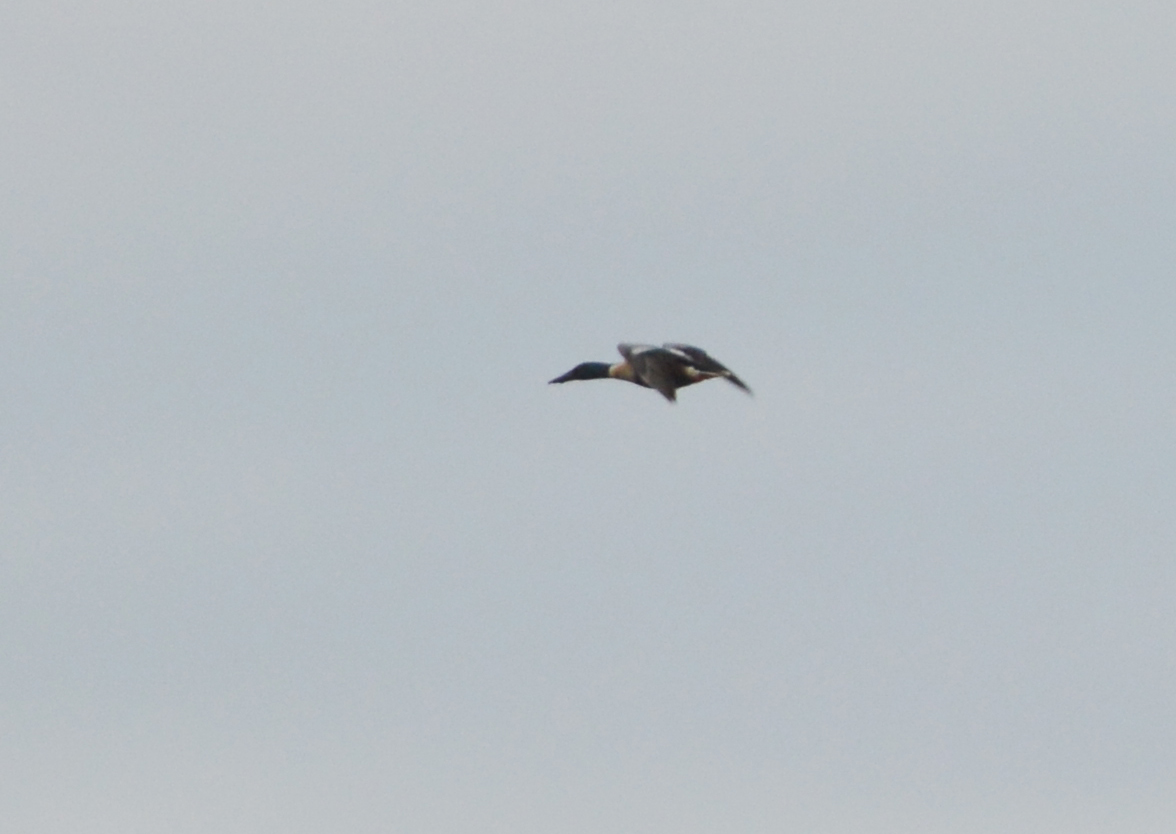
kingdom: Animalia
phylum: Chordata
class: Aves
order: Anseriformes
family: Anatidae
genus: Spatula
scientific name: Spatula clypeata
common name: Northern shoveler
